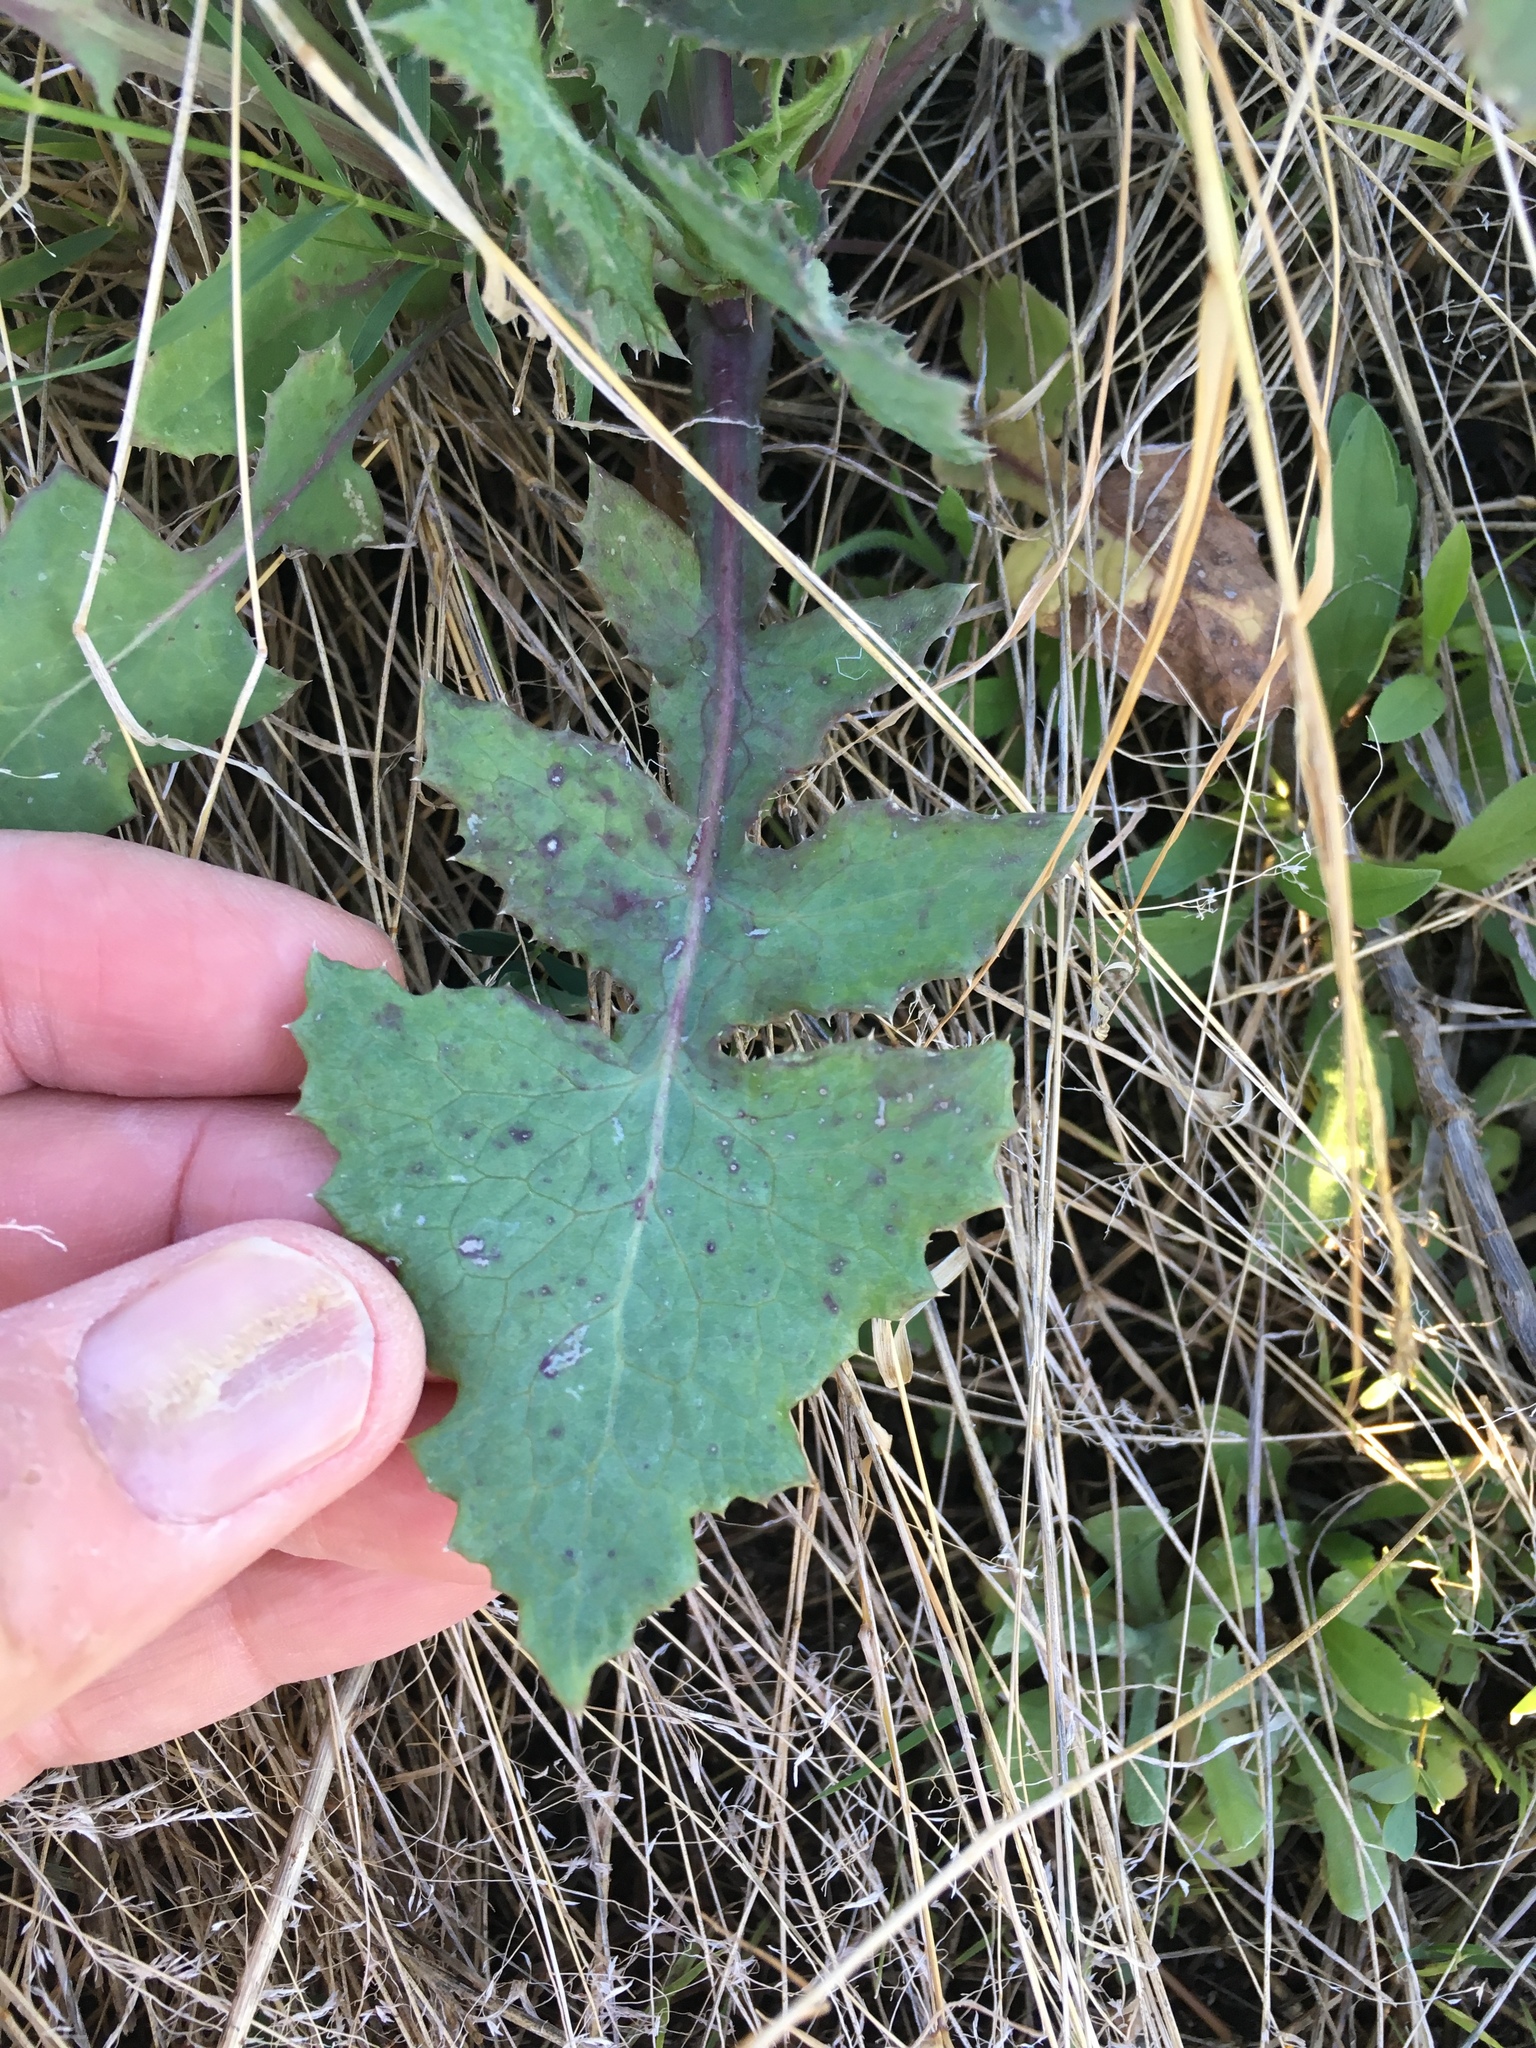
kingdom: Plantae
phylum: Tracheophyta
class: Magnoliopsida
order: Asterales
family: Asteraceae
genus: Sonchus
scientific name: Sonchus oleraceus
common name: Common sowthistle
